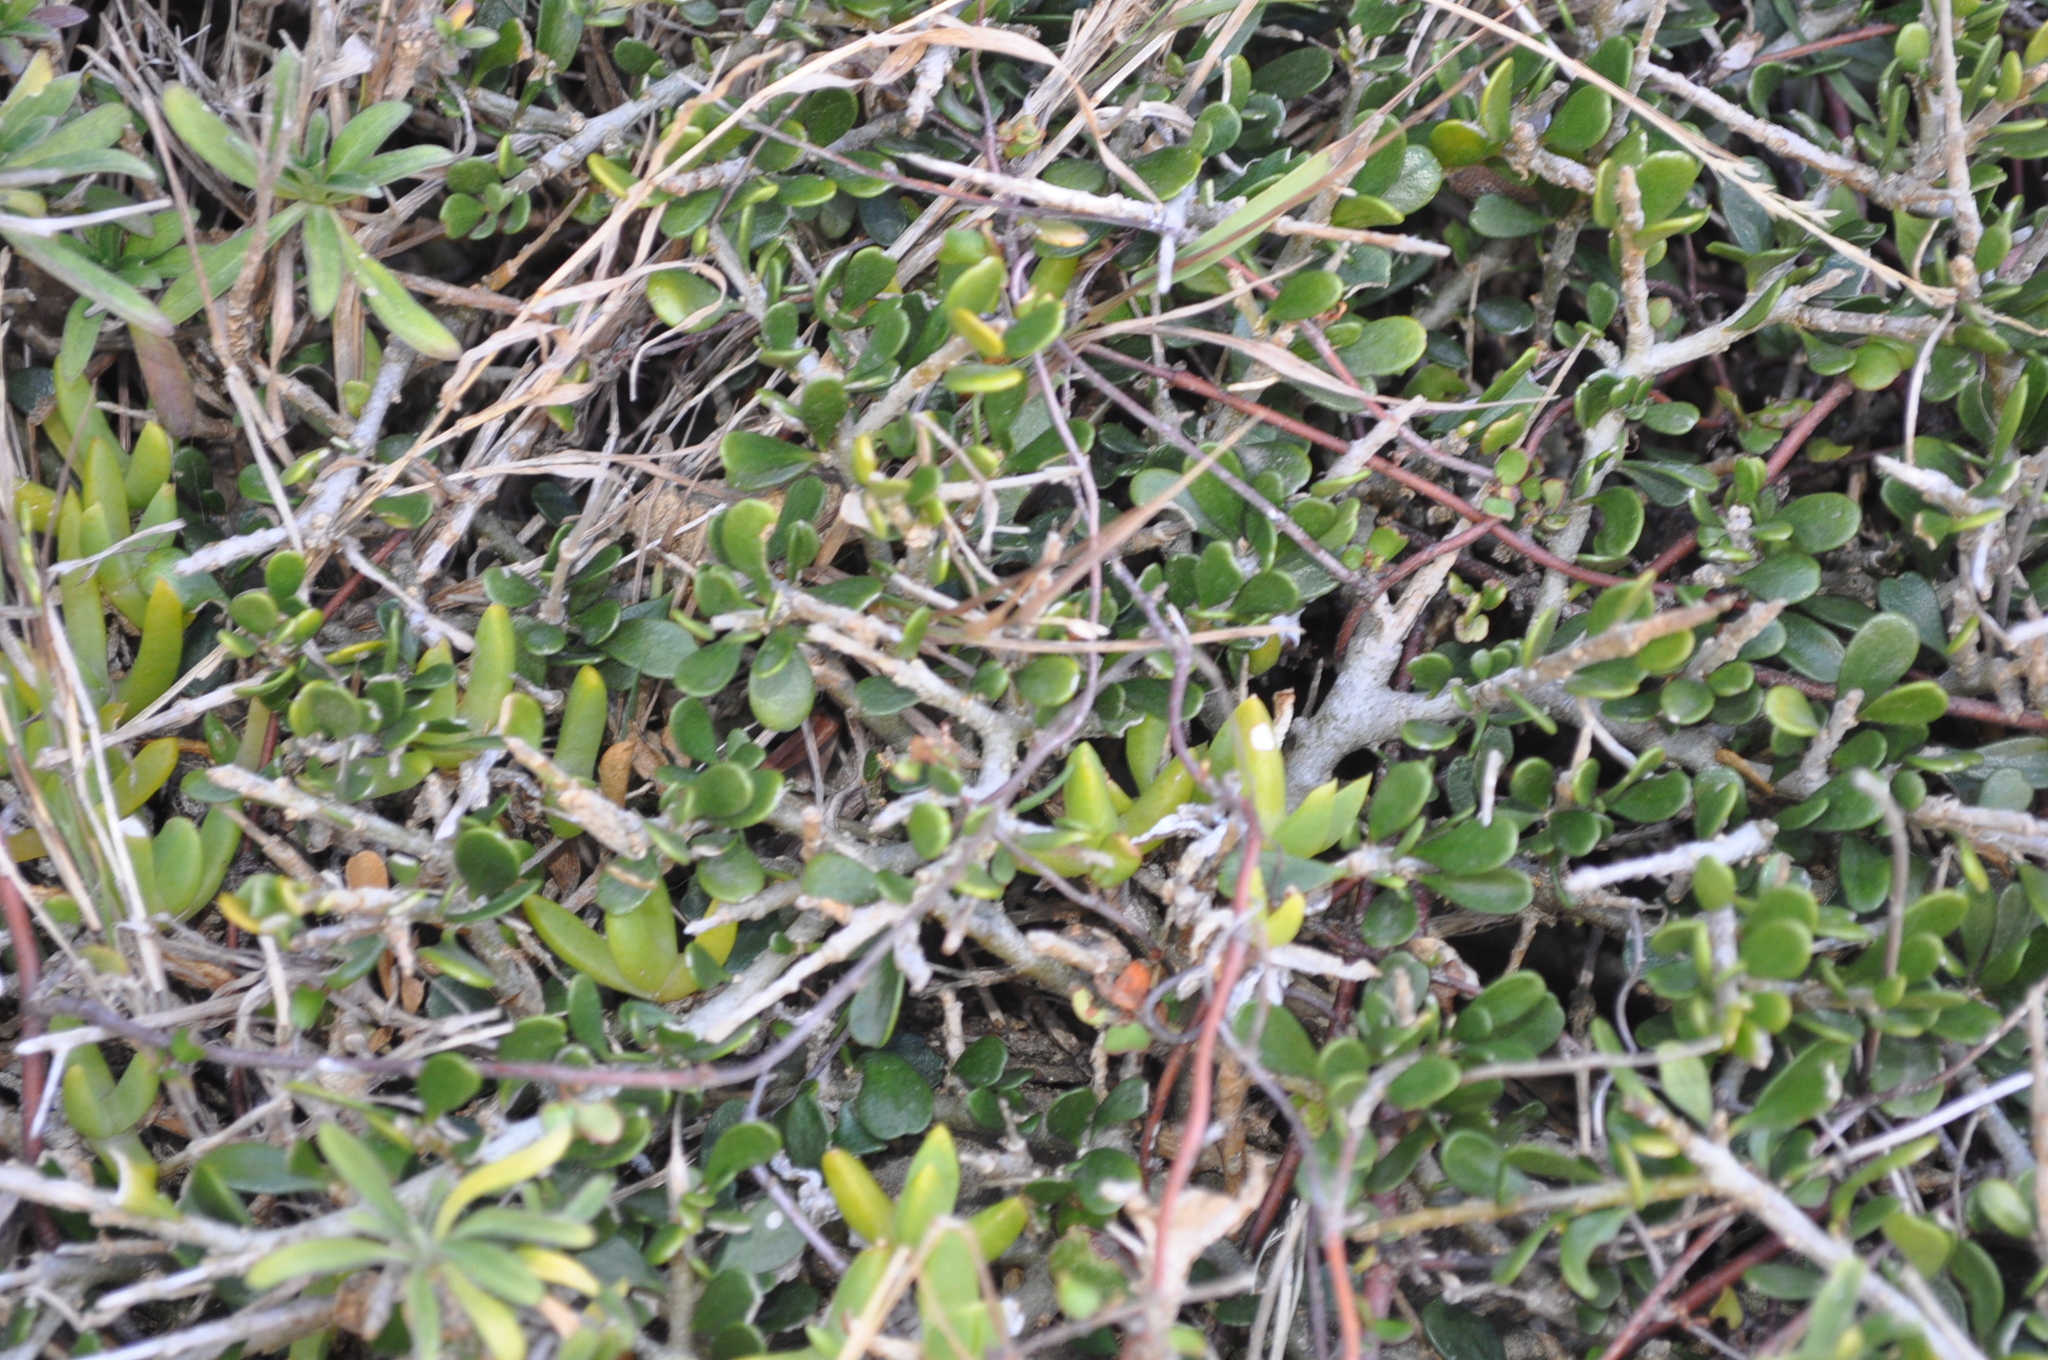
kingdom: Plantae
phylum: Tracheophyta
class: Magnoliopsida
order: Malpighiales
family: Violaceae
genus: Melicytus
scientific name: Melicytus crassifolius
